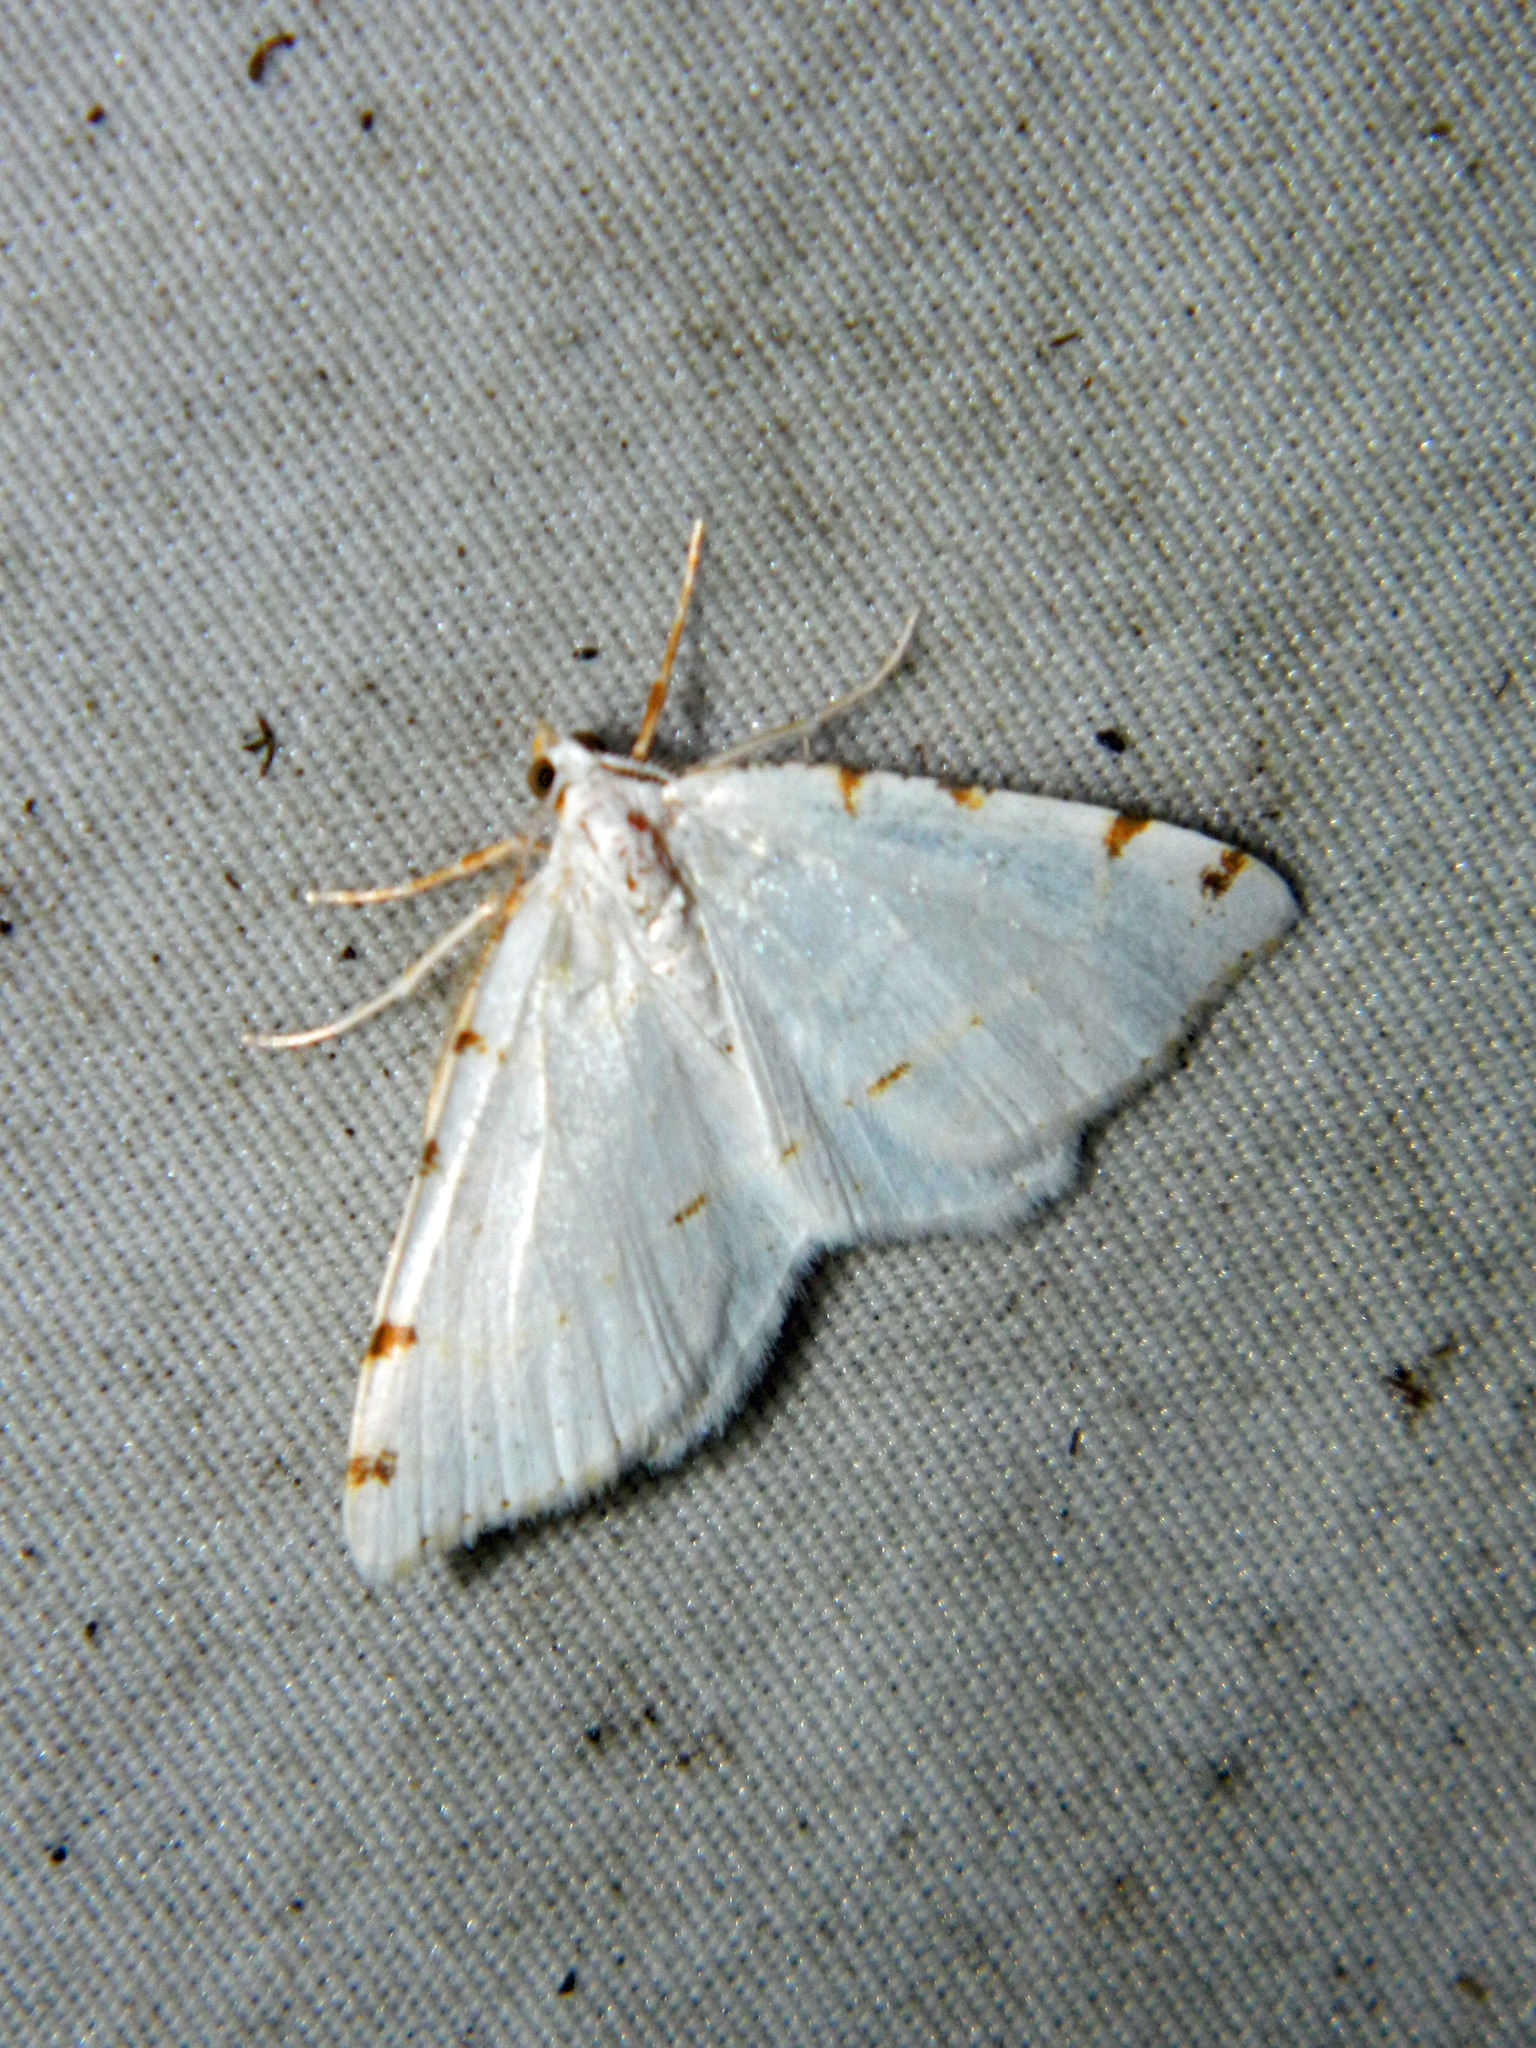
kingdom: Animalia
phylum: Arthropoda
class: Insecta
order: Lepidoptera
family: Geometridae
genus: Macaria
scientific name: Macaria pustularia
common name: Lesser maple spanworm moth
